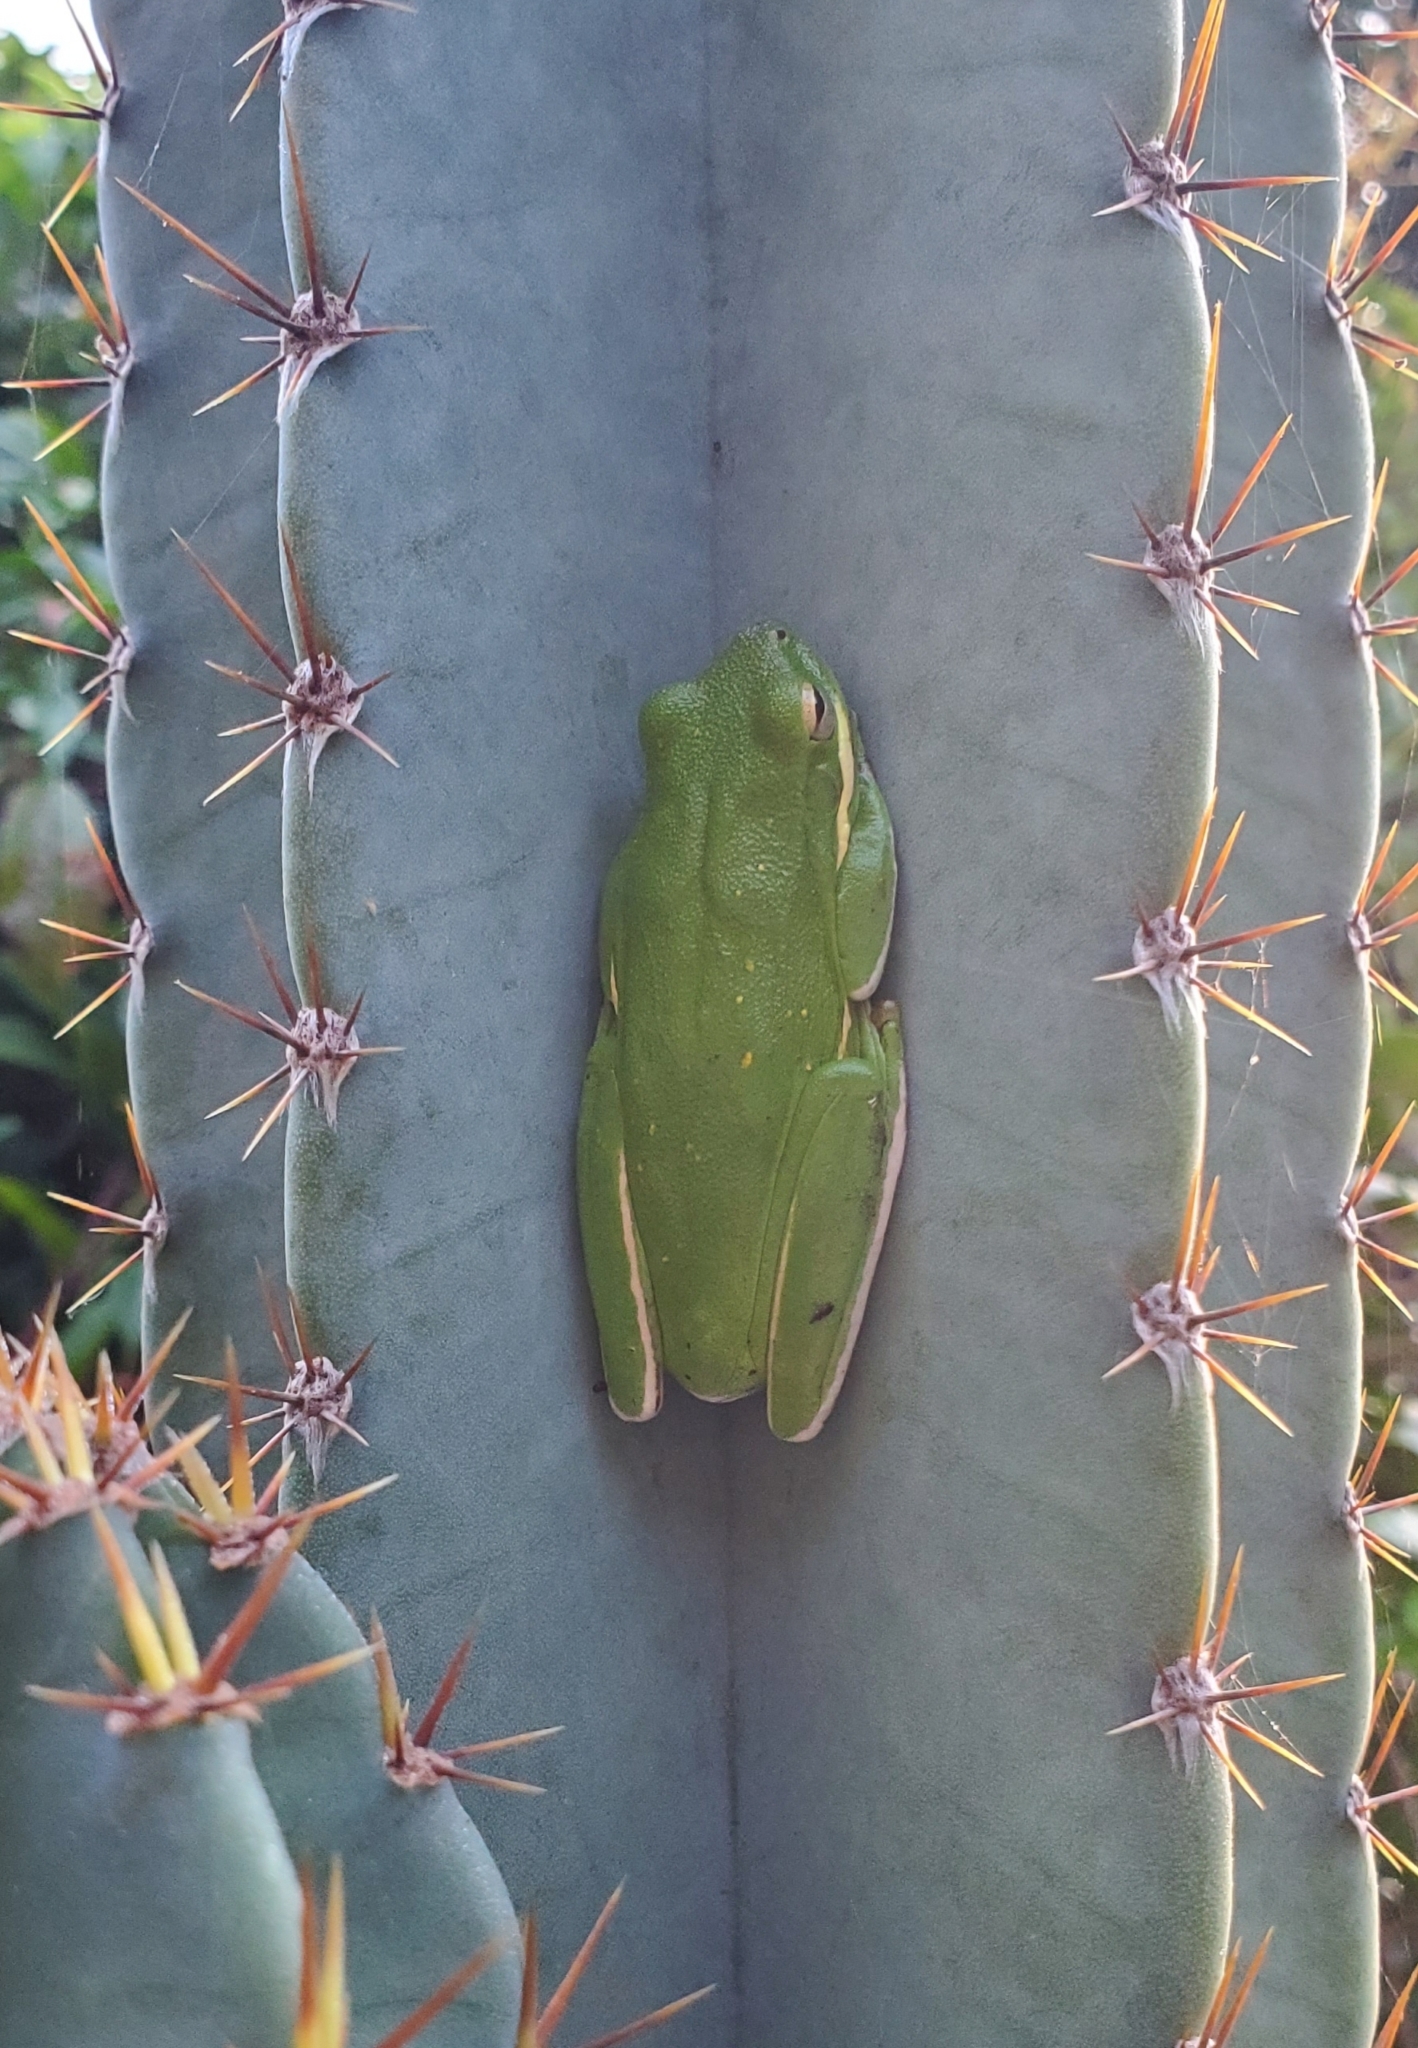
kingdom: Animalia
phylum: Chordata
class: Amphibia
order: Anura
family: Hylidae
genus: Dryophytes
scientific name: Dryophytes cinereus
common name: Green treefrog
